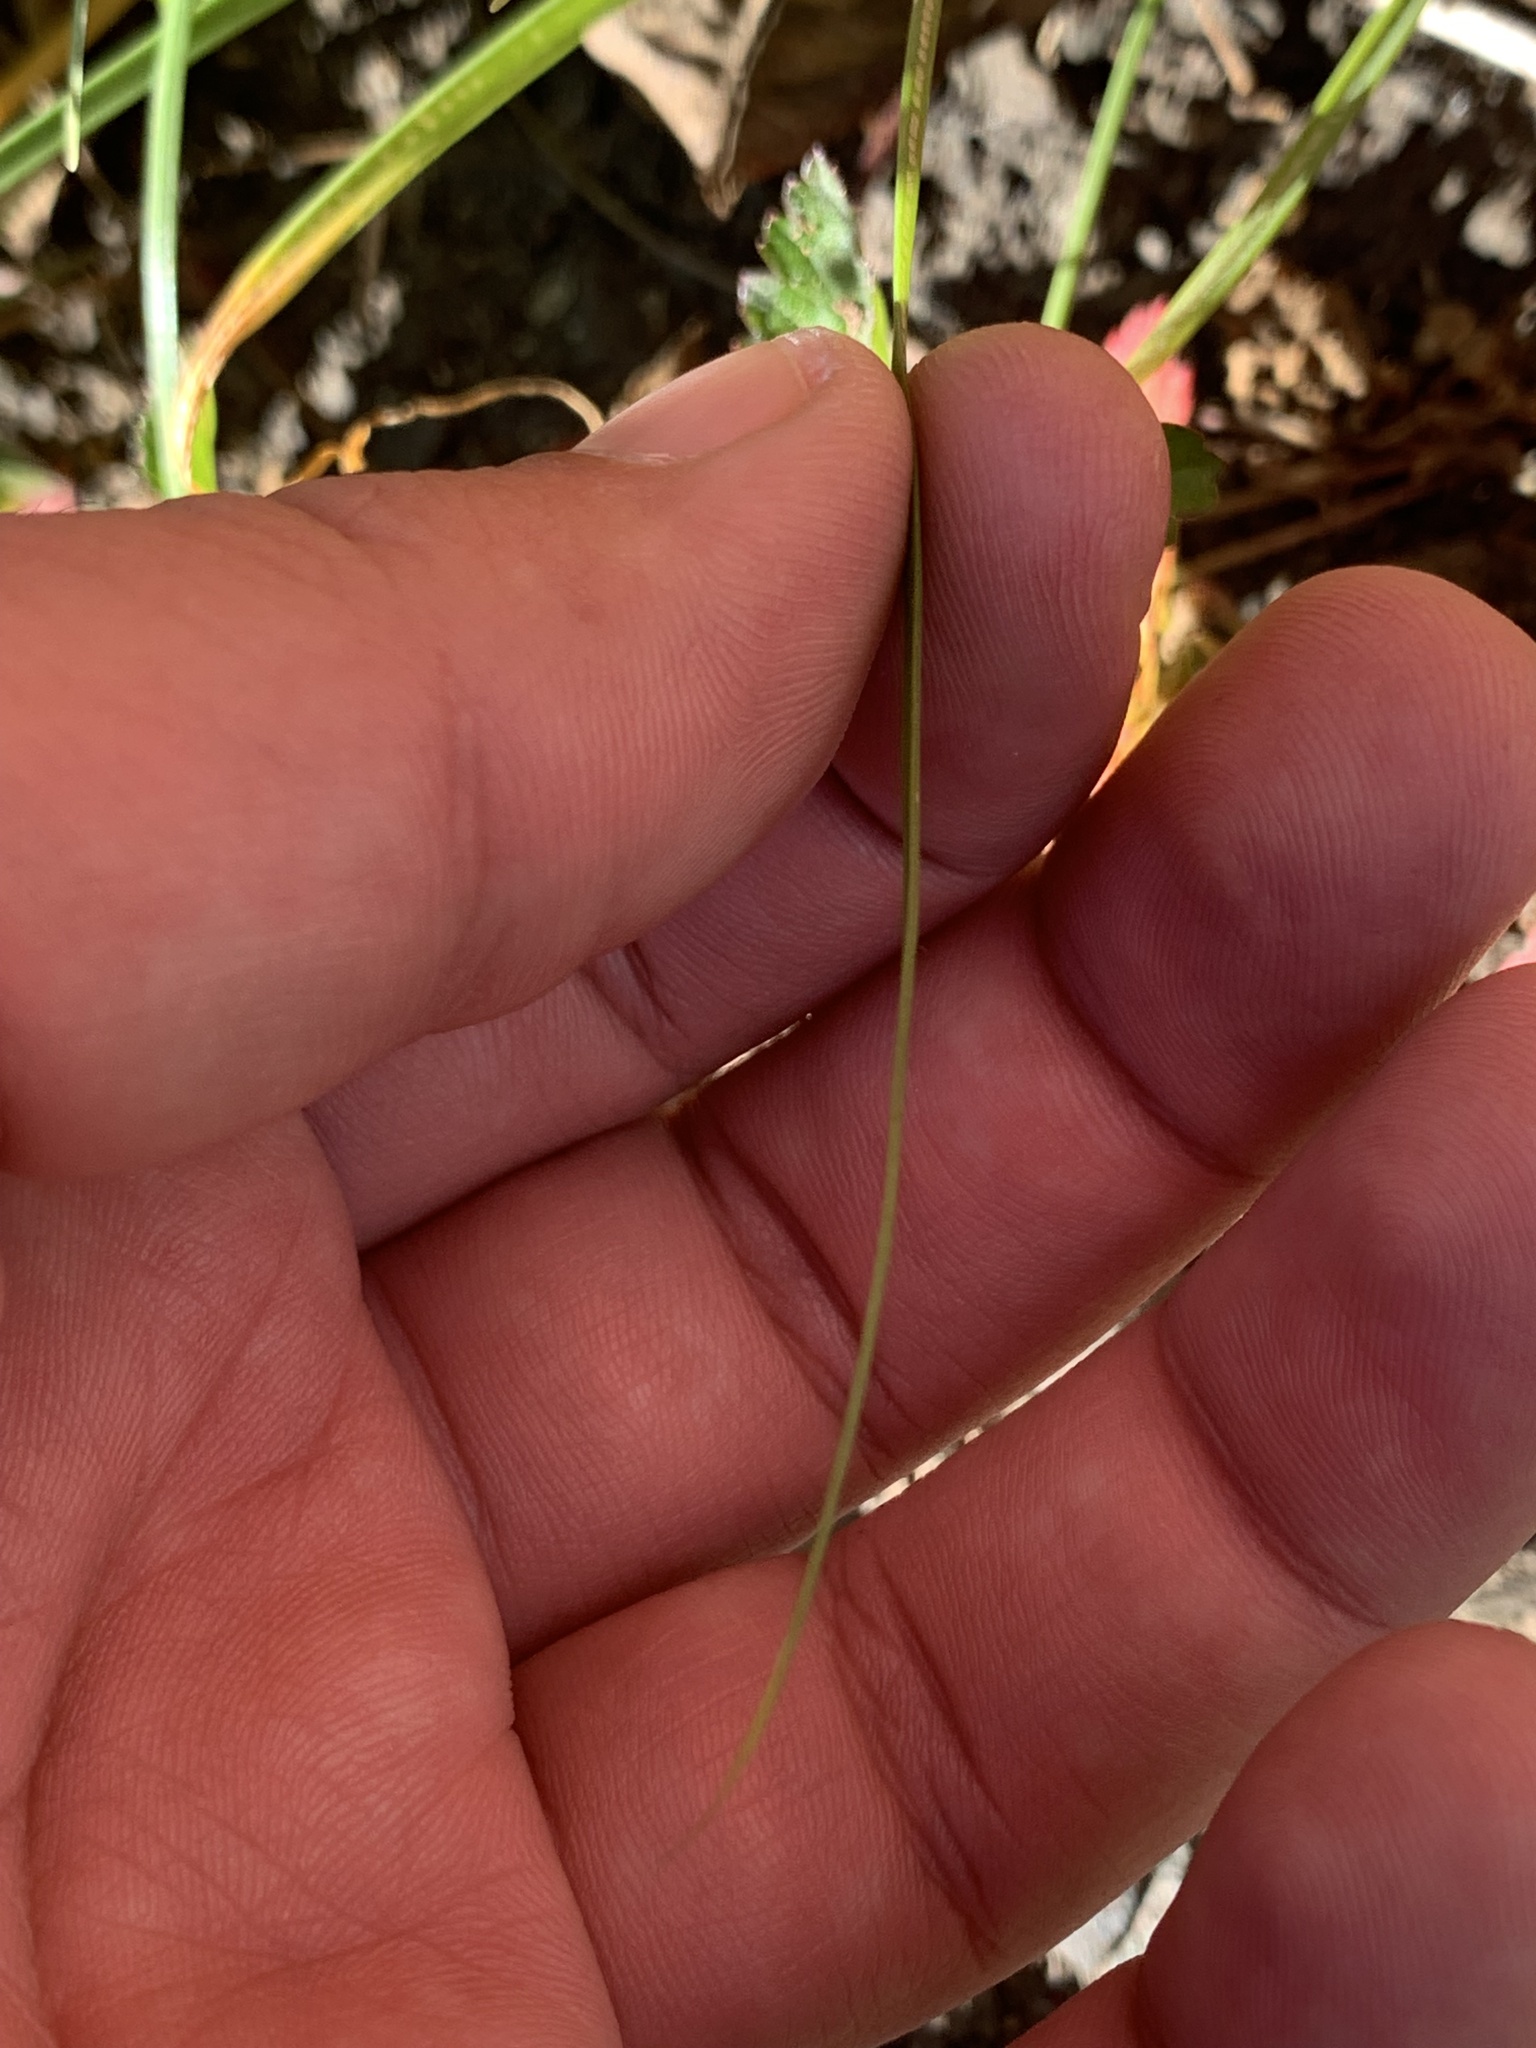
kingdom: Plantae
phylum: Tracheophyta
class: Liliopsida
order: Asparagales
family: Amaryllidaceae
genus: Allium
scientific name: Allium tuberosum
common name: Chinese chives
